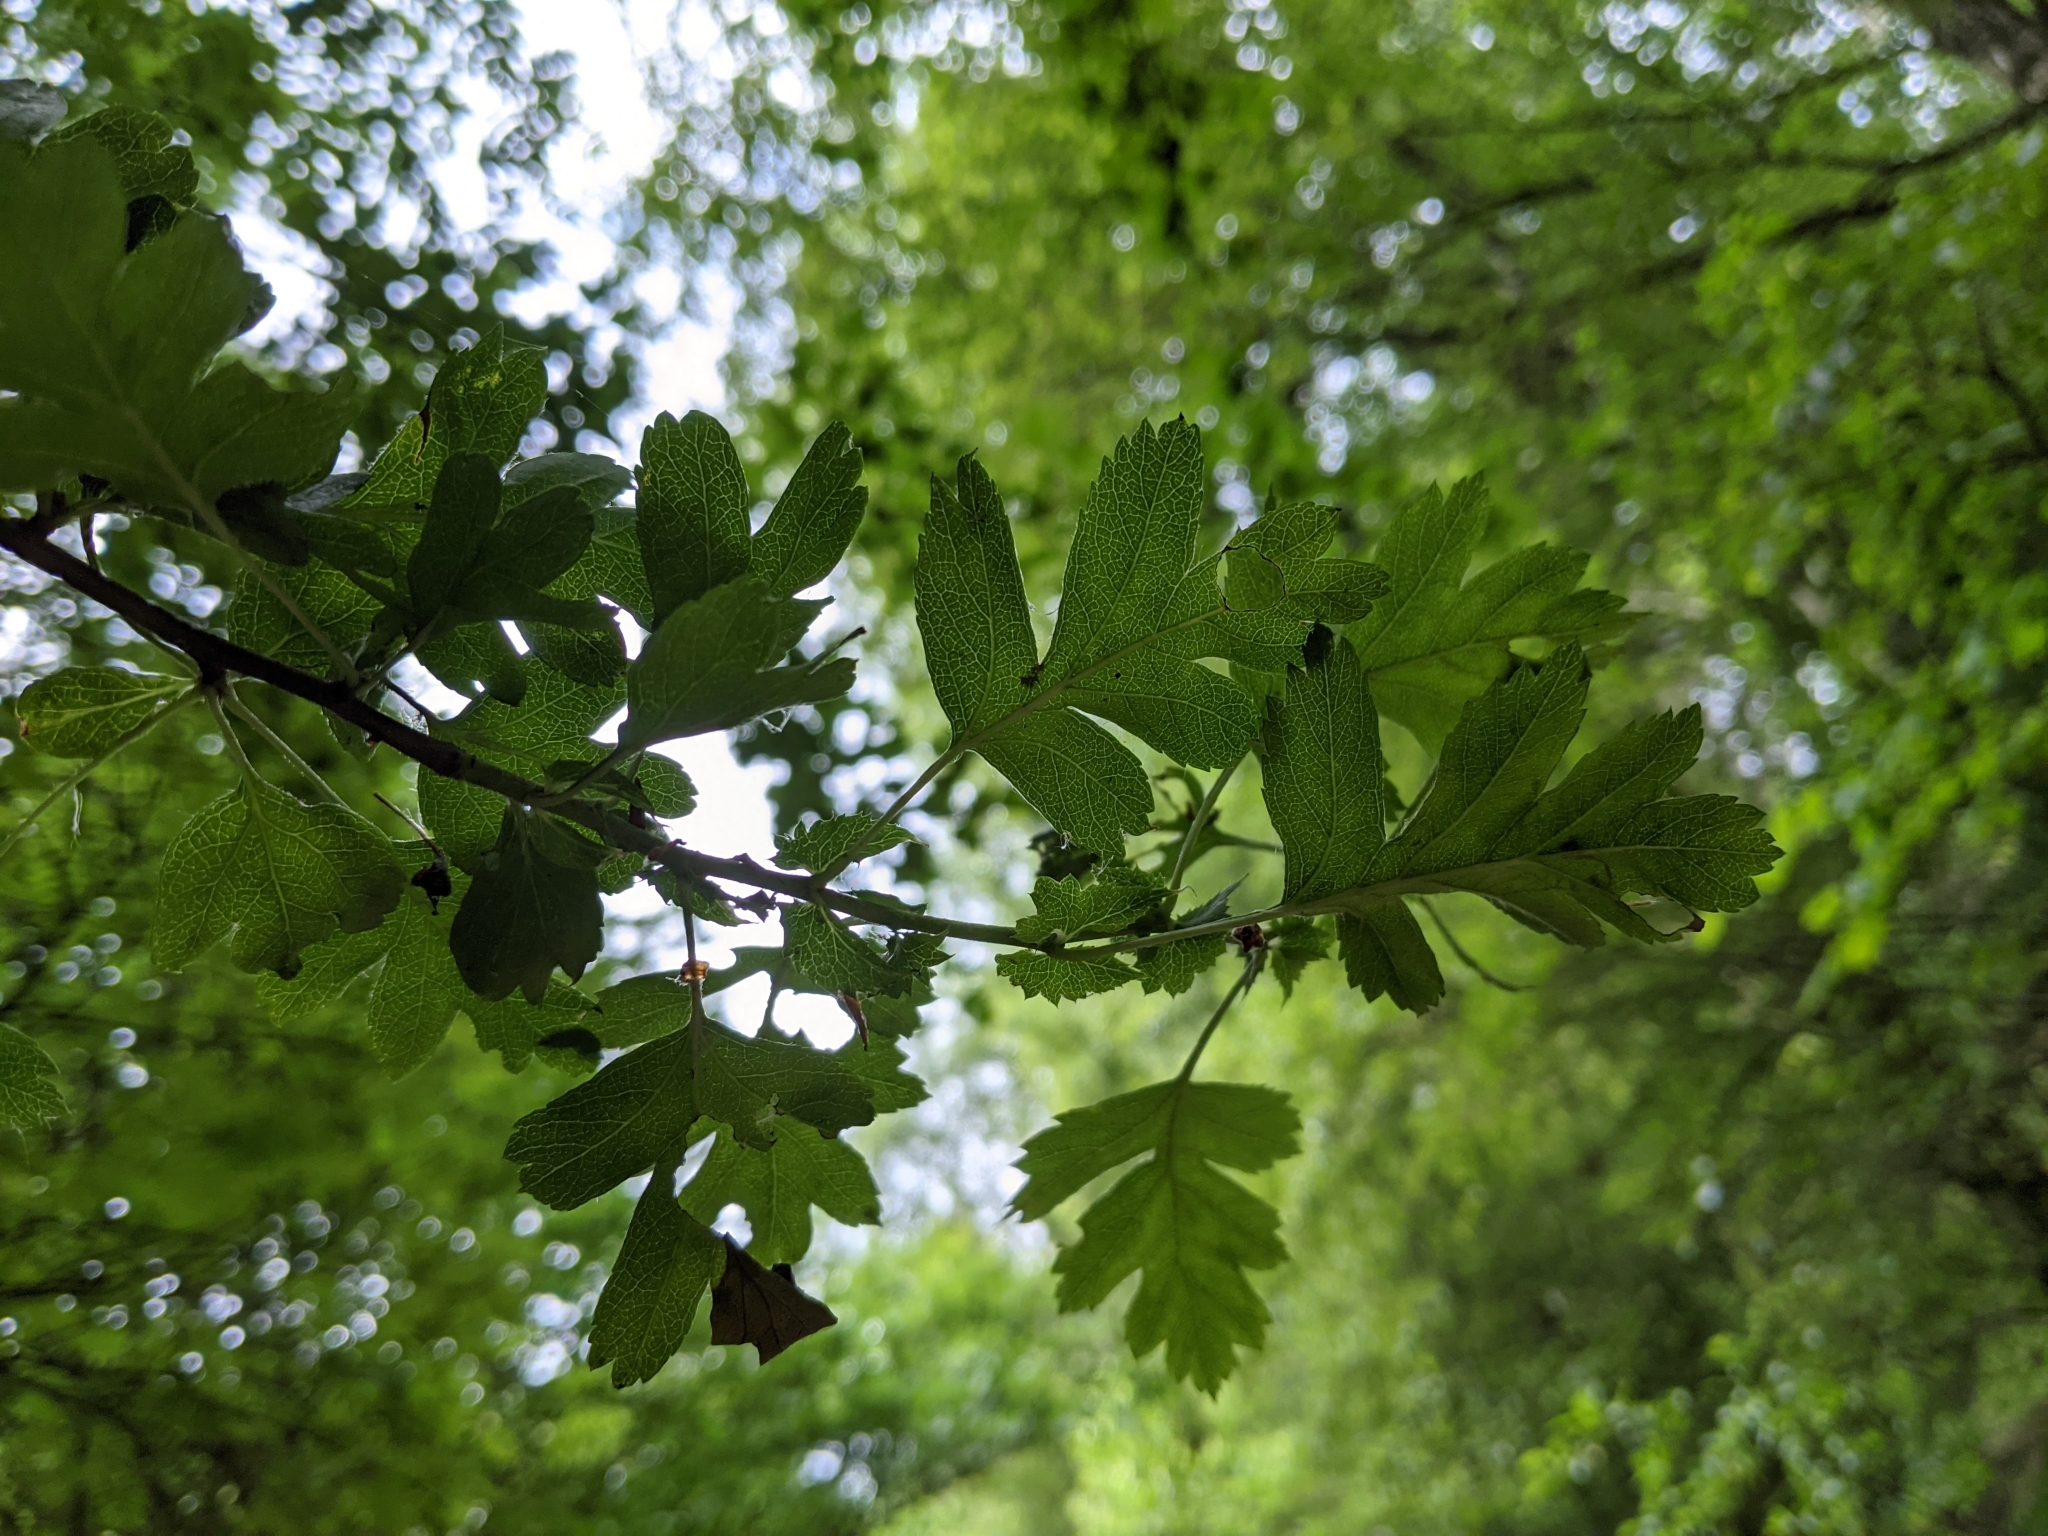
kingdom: Plantae
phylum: Tracheophyta
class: Magnoliopsida
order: Rosales
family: Rosaceae
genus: Crataegus
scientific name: Crataegus monogyna
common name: Hawthorn
